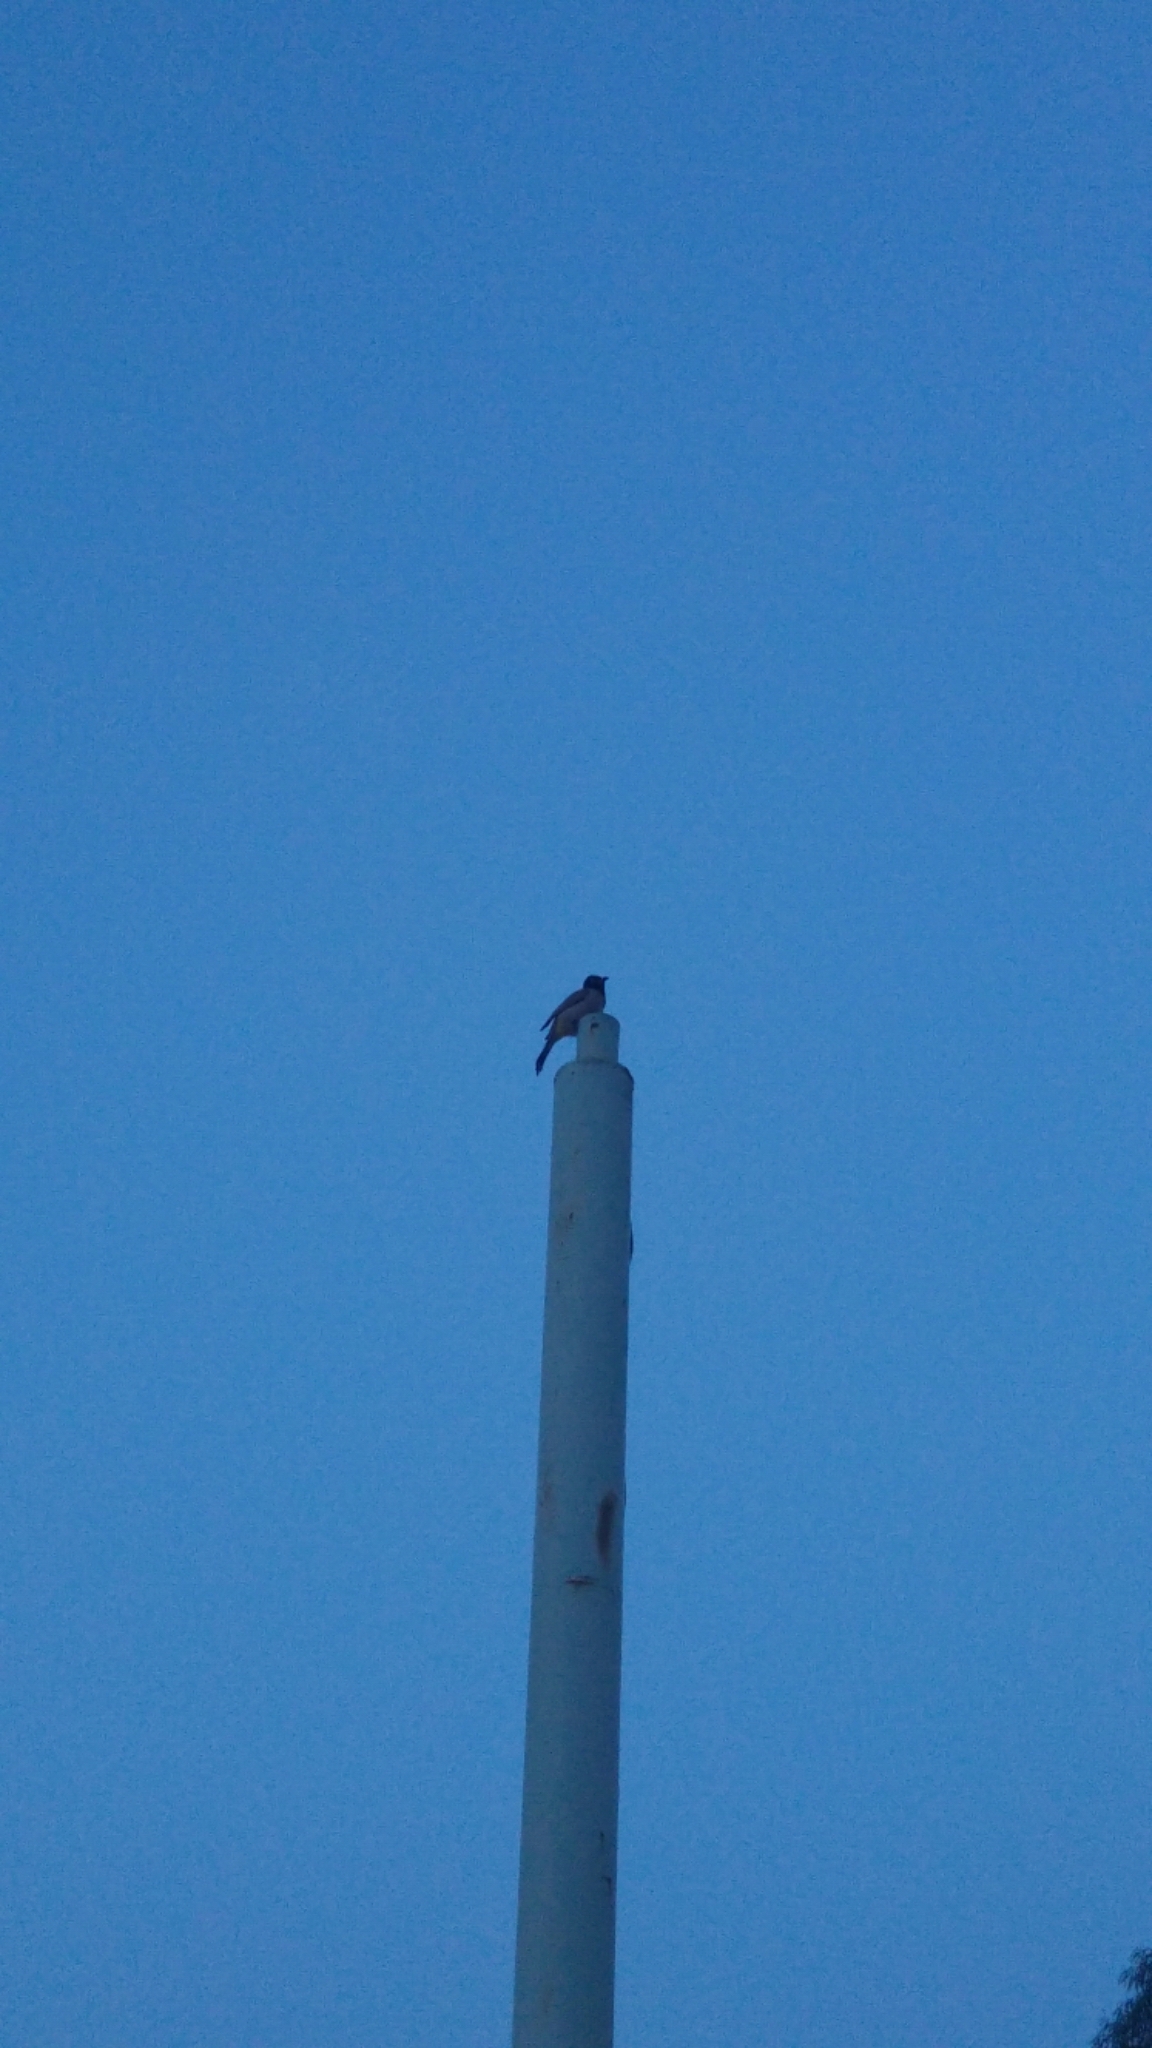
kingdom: Animalia
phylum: Chordata
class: Aves
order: Passeriformes
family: Pycnonotidae
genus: Pycnonotus
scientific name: Pycnonotus xanthopygos
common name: White-spectacled bulbul
